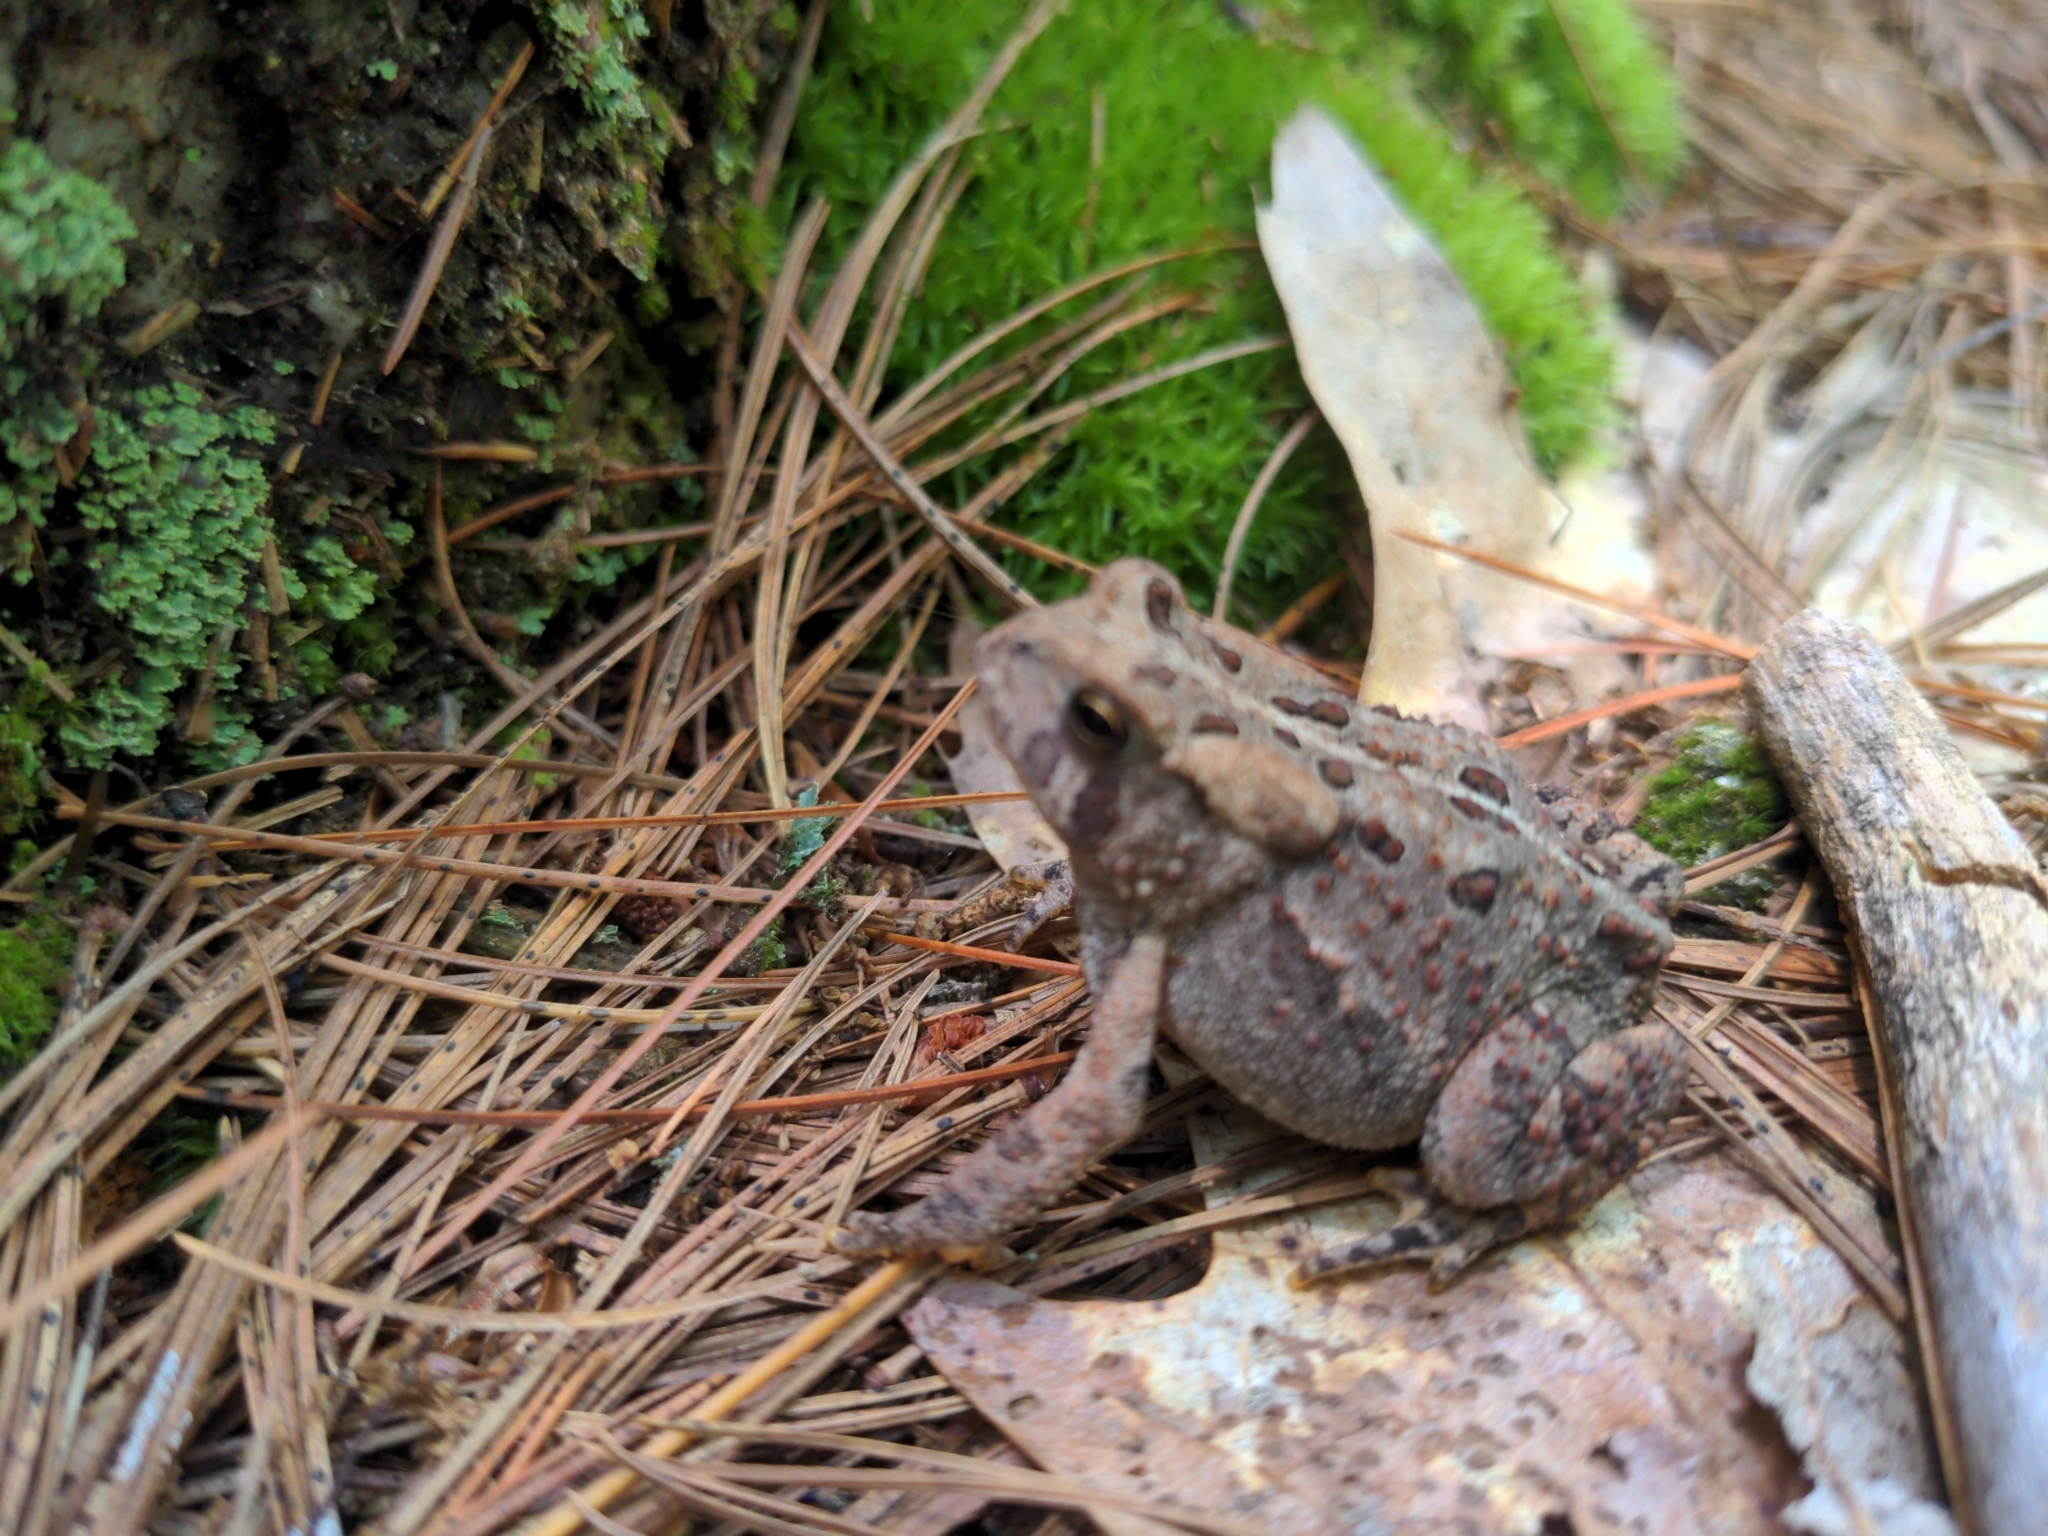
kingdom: Animalia
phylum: Chordata
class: Amphibia
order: Anura
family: Bufonidae
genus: Anaxyrus
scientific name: Anaxyrus americanus
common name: American toad
